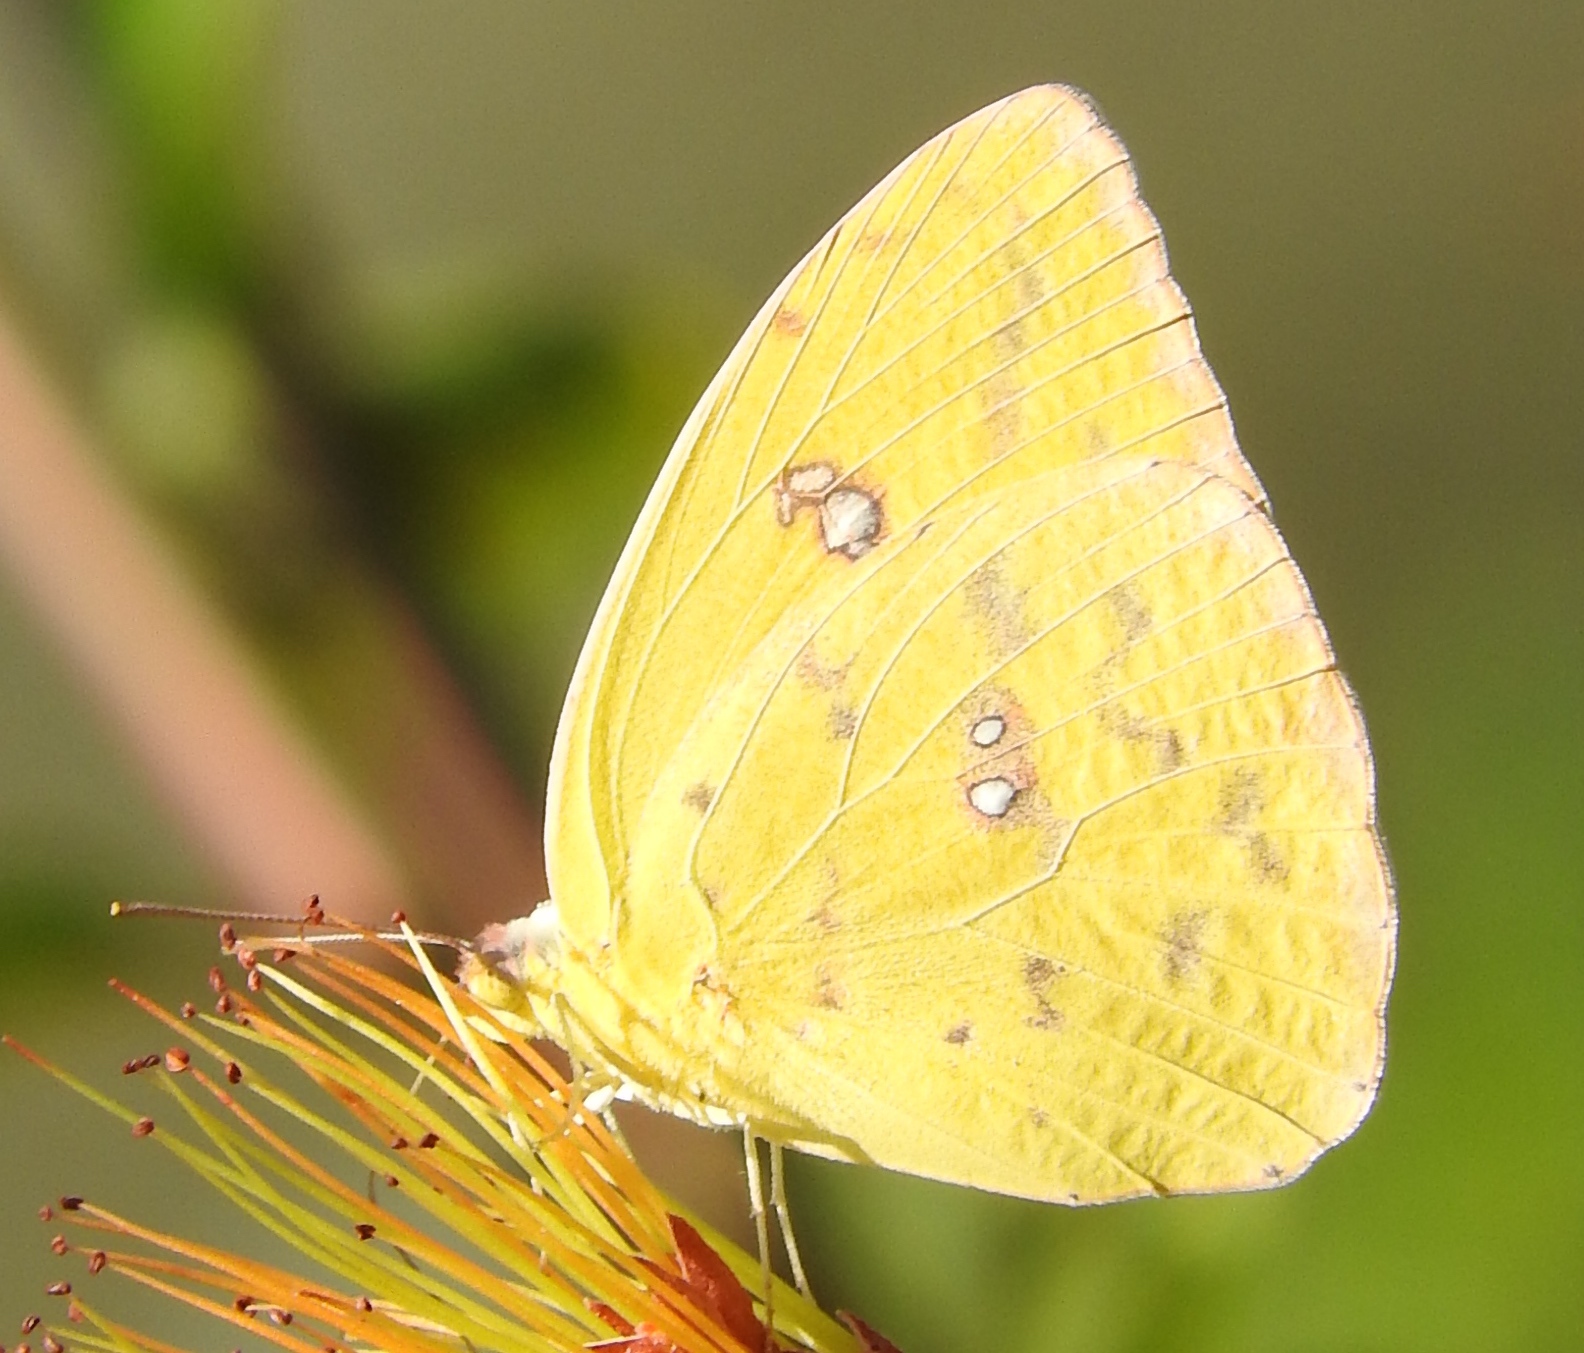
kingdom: Animalia
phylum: Arthropoda
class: Insecta
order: Lepidoptera
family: Pieridae
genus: Phoebis
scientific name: Phoebis sennae
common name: Cloudless sulphur
